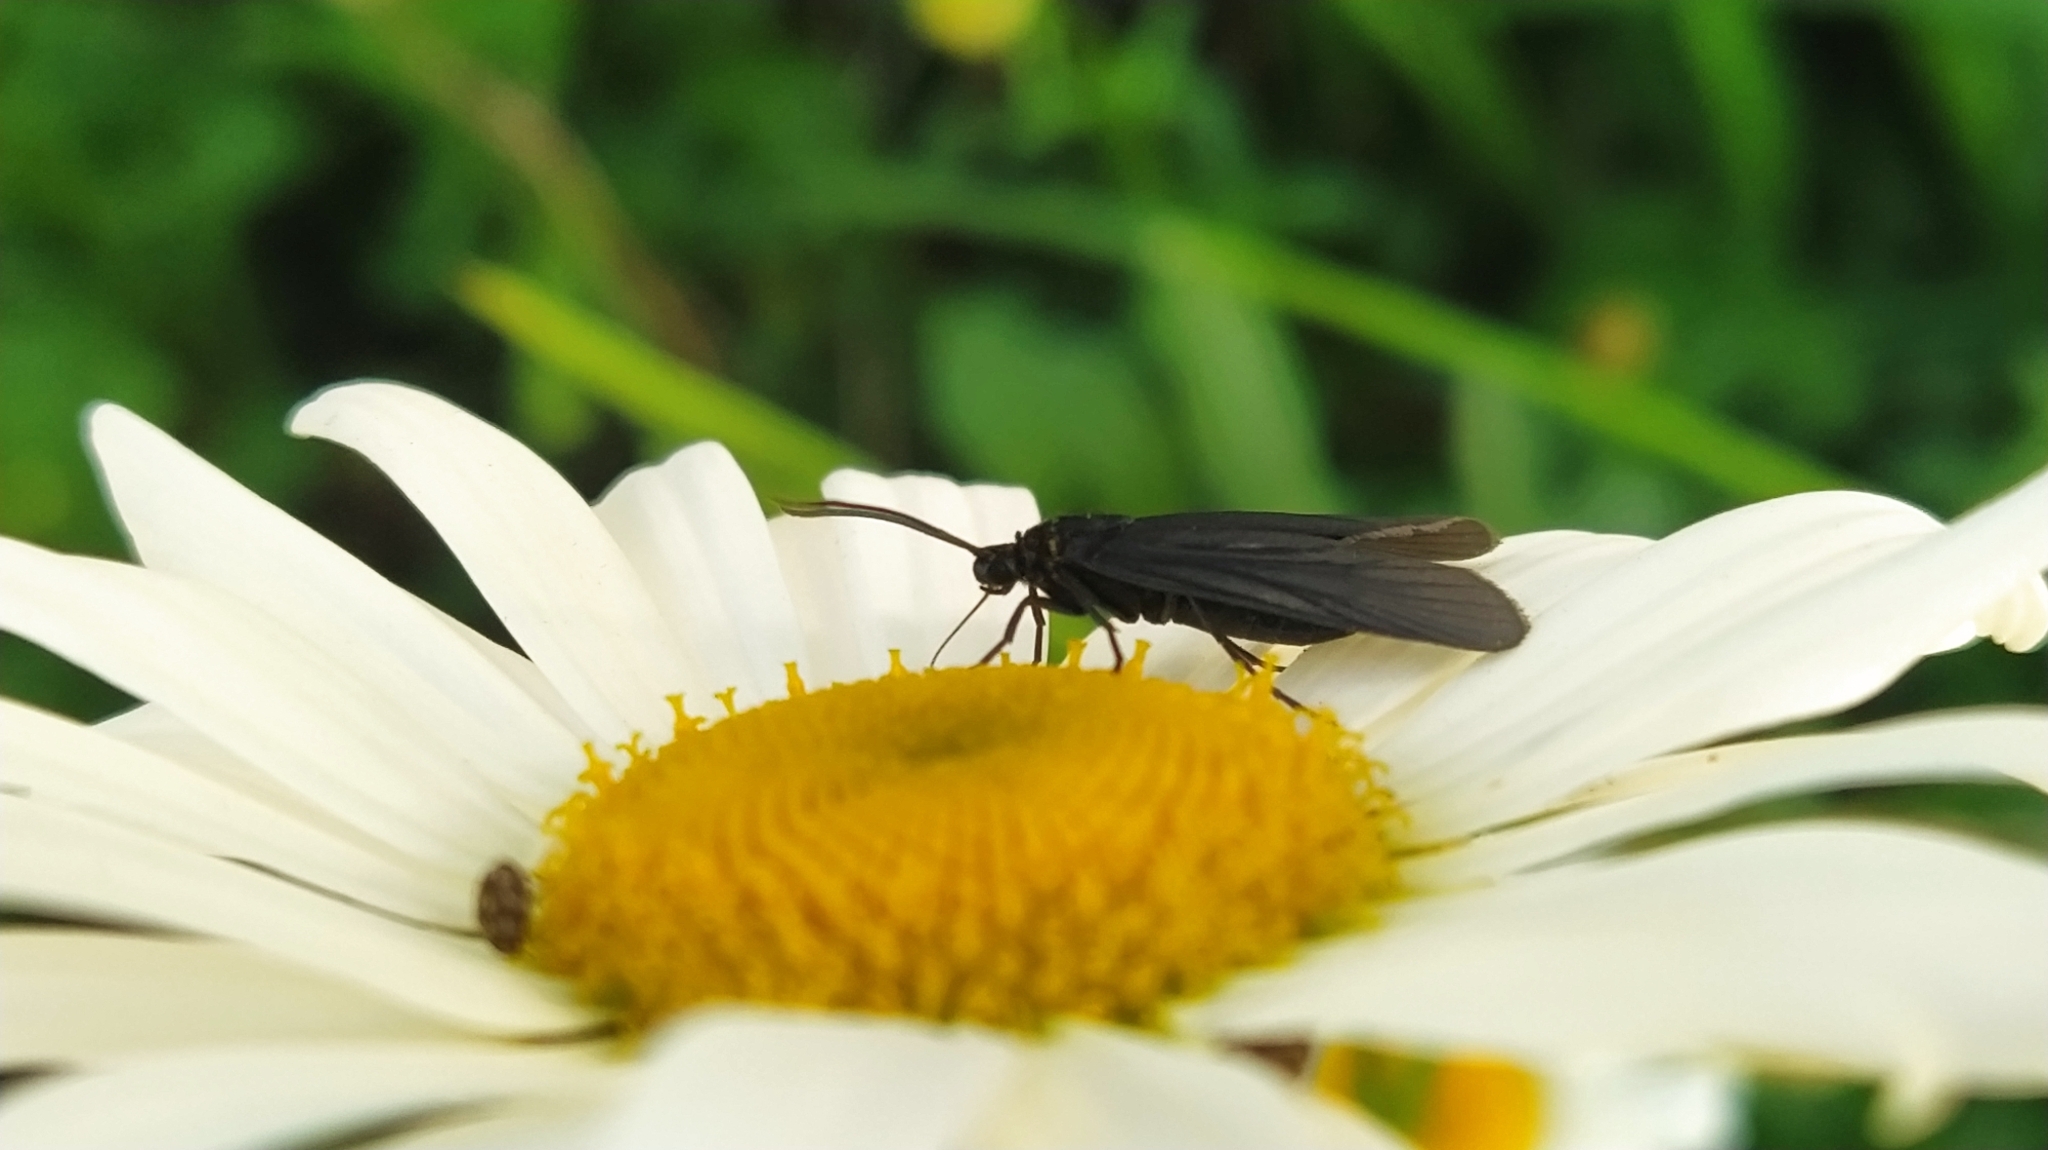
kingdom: Animalia
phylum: Arthropoda
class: Insecta
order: Lepidoptera
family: Zygaenidae
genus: Artona
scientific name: Artona martini
